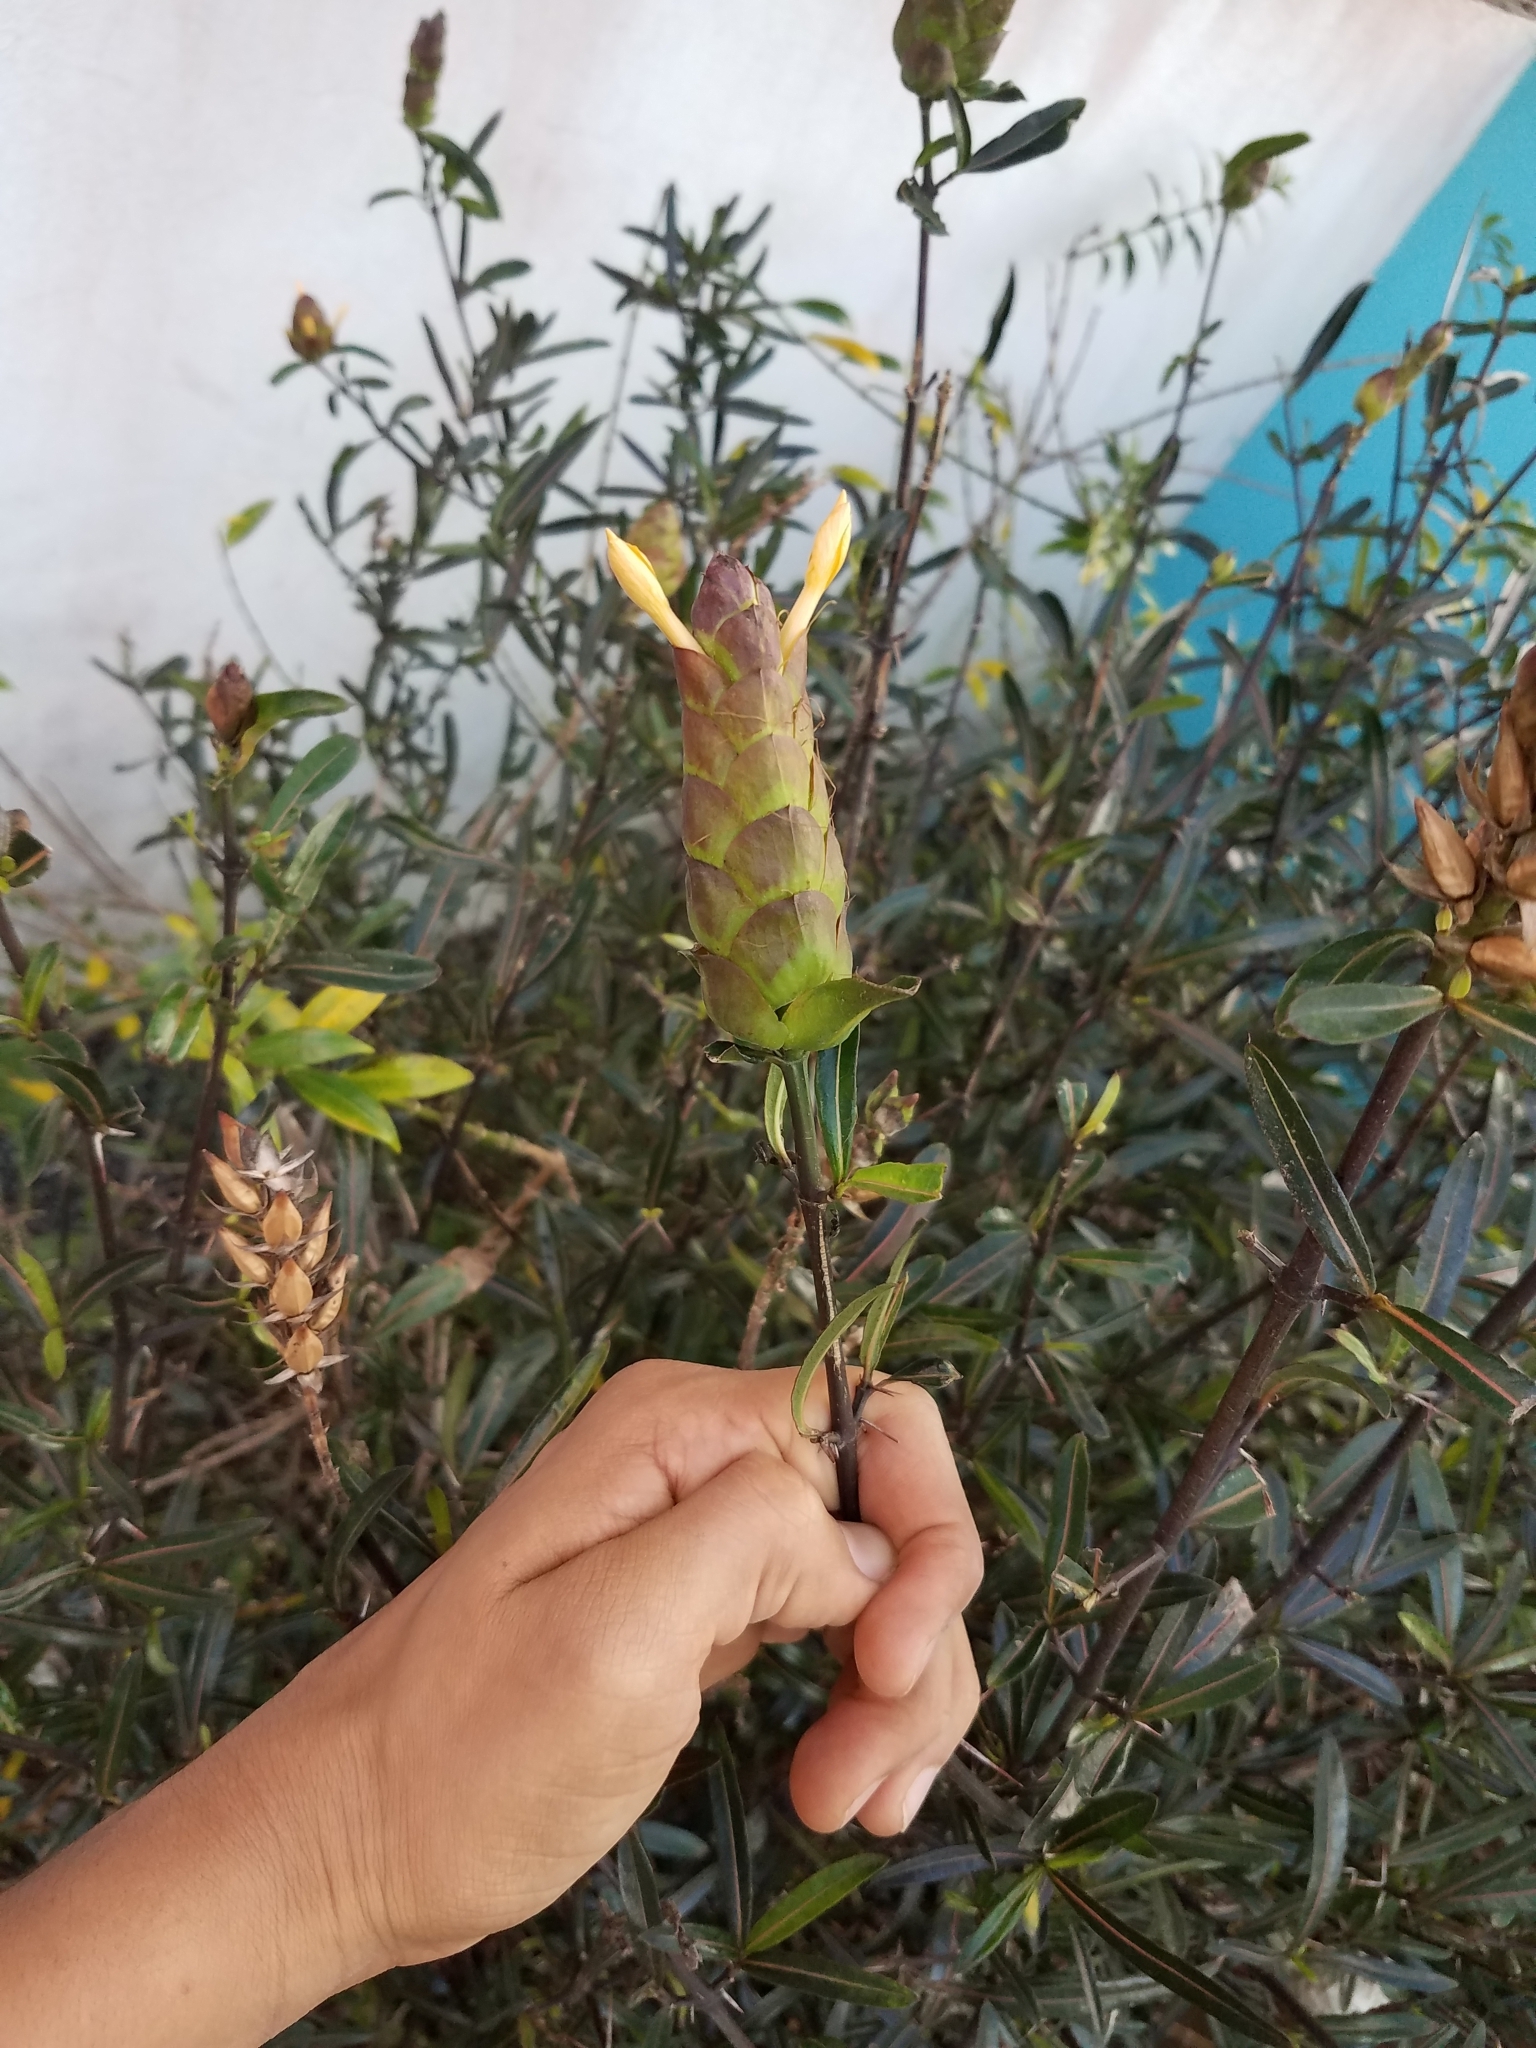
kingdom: Plantae
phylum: Tracheophyta
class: Magnoliopsida
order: Lamiales
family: Acanthaceae
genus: Barleria
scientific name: Barleria lupulina
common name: Hophead philippine violet
